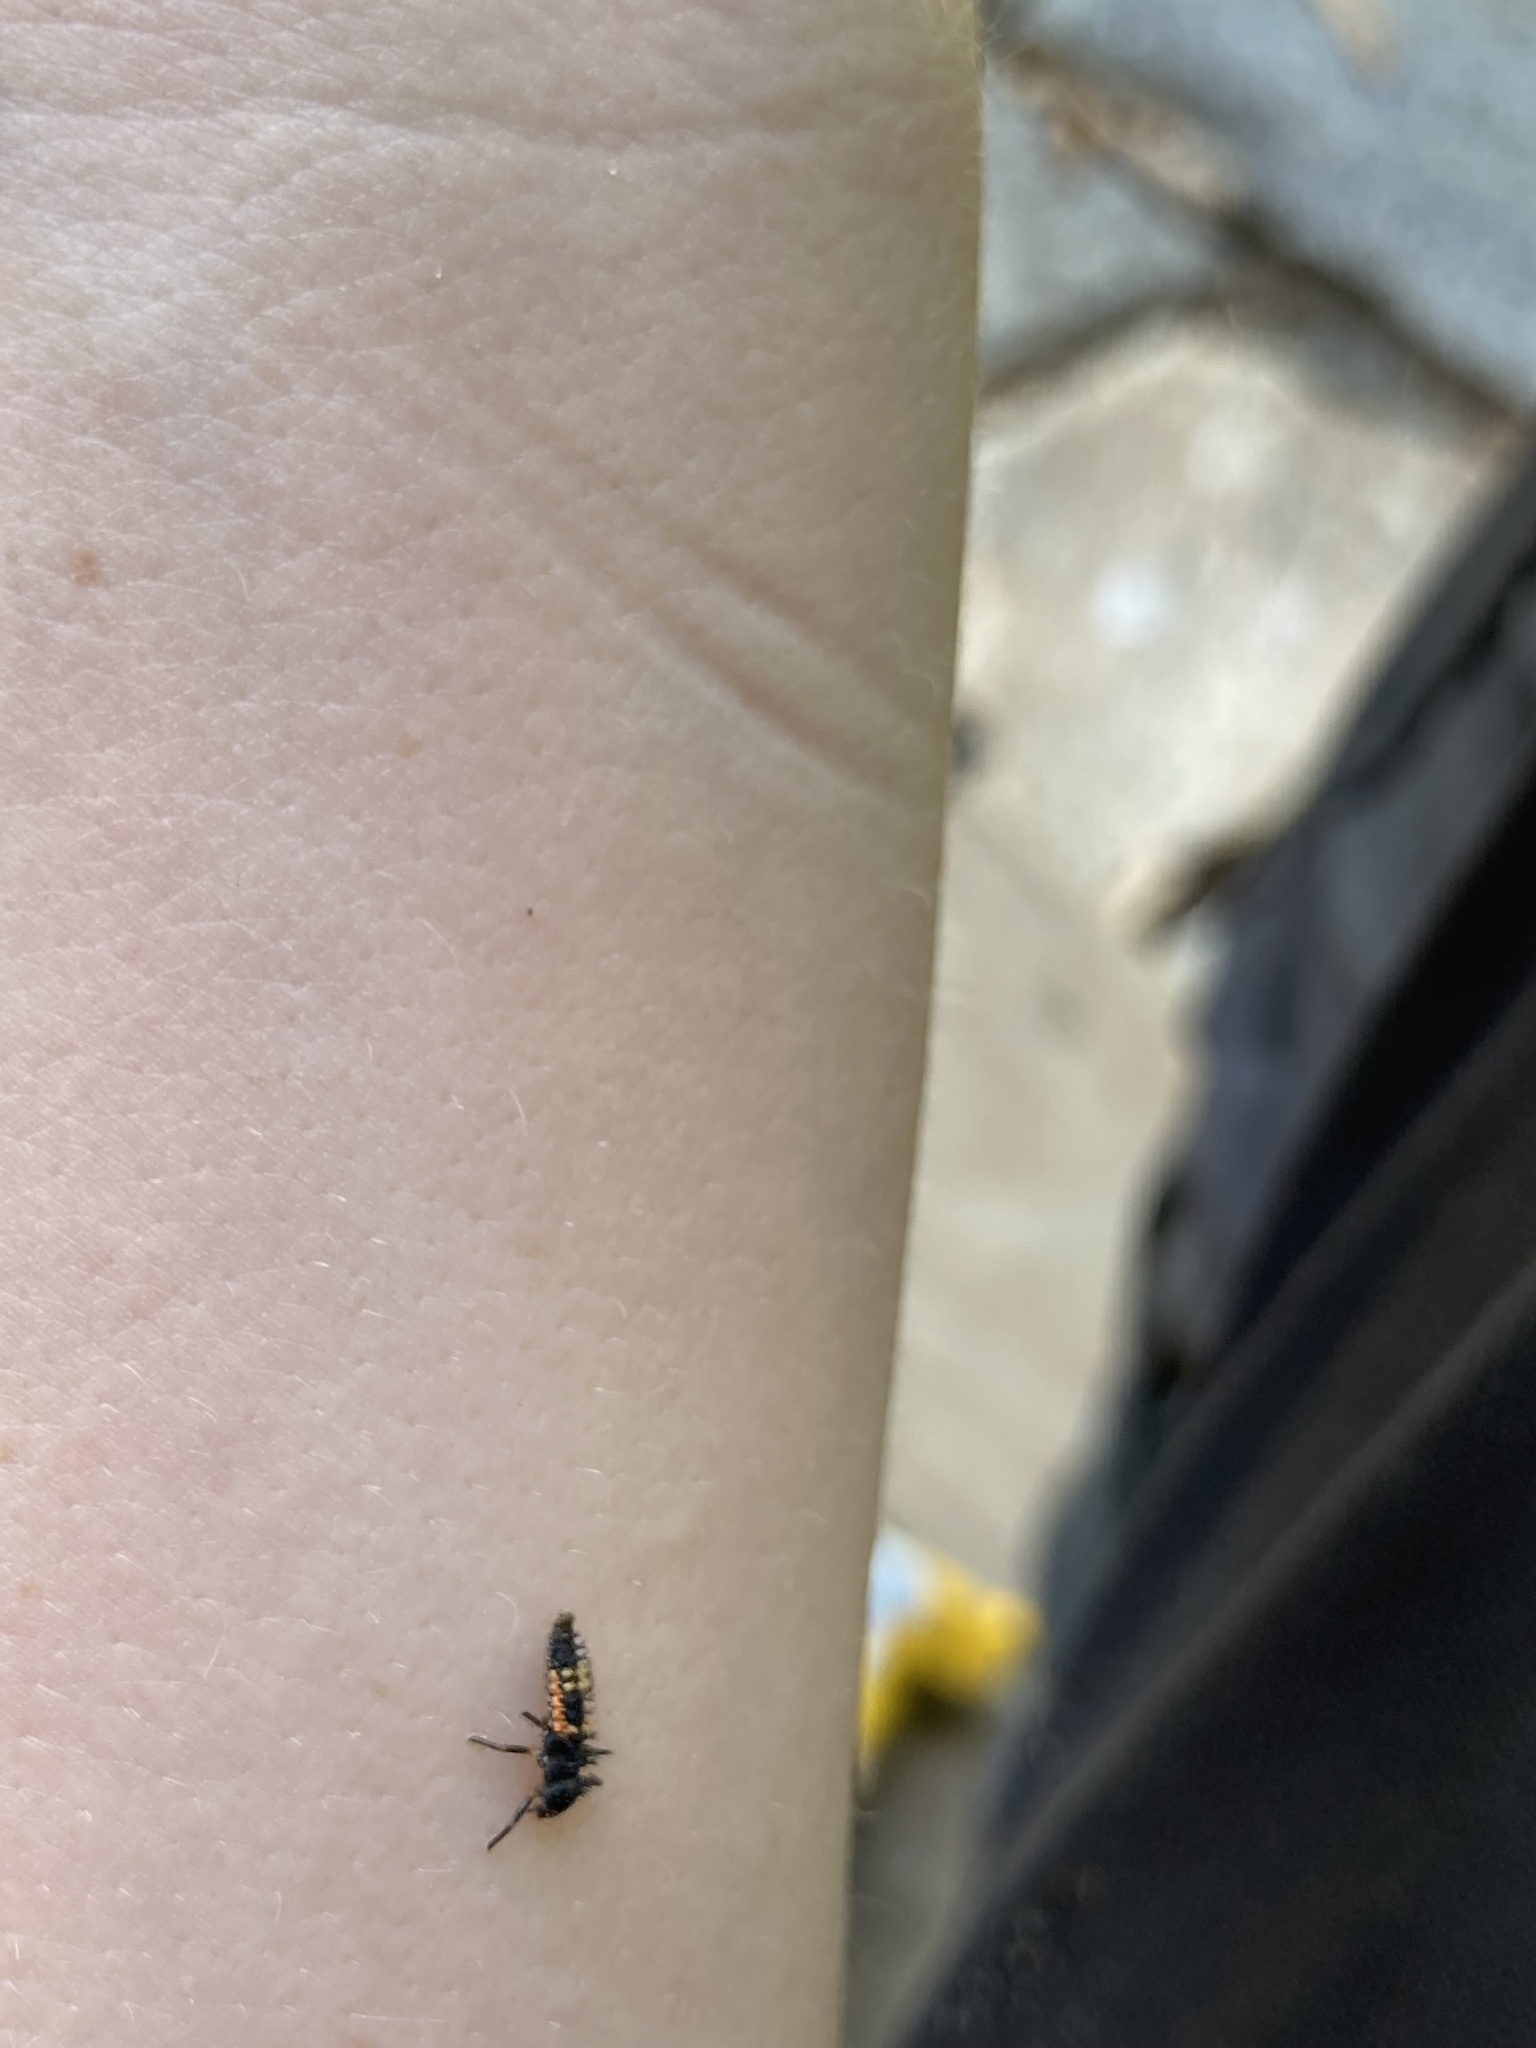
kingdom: Animalia
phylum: Arthropoda
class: Insecta
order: Coleoptera
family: Coccinellidae
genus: Harmonia
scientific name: Harmonia axyridis
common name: Harlequin ladybird
